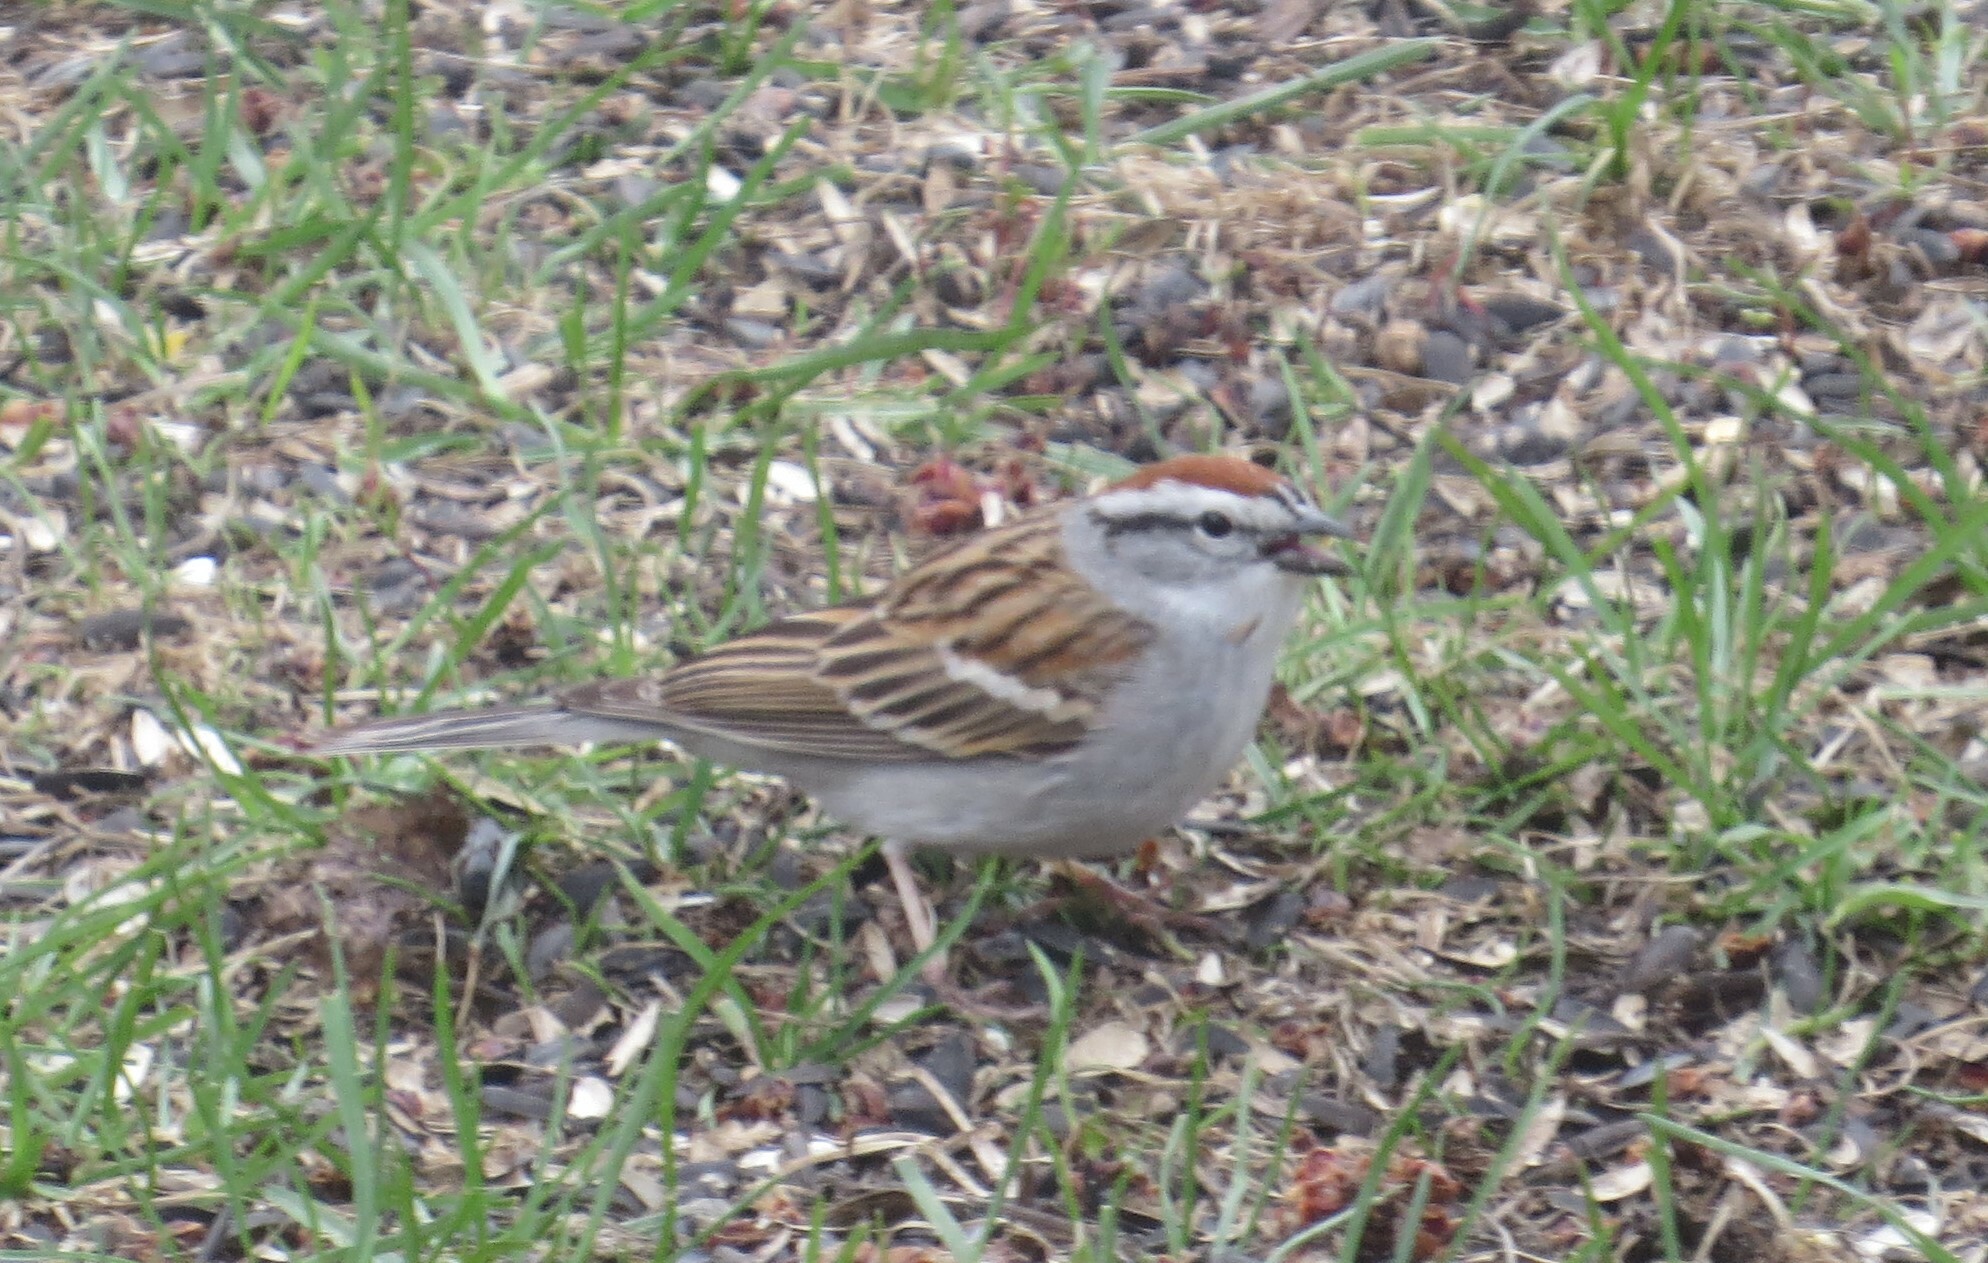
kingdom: Animalia
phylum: Chordata
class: Aves
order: Passeriformes
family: Passerellidae
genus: Spizella
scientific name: Spizella passerina
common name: Chipping sparrow
